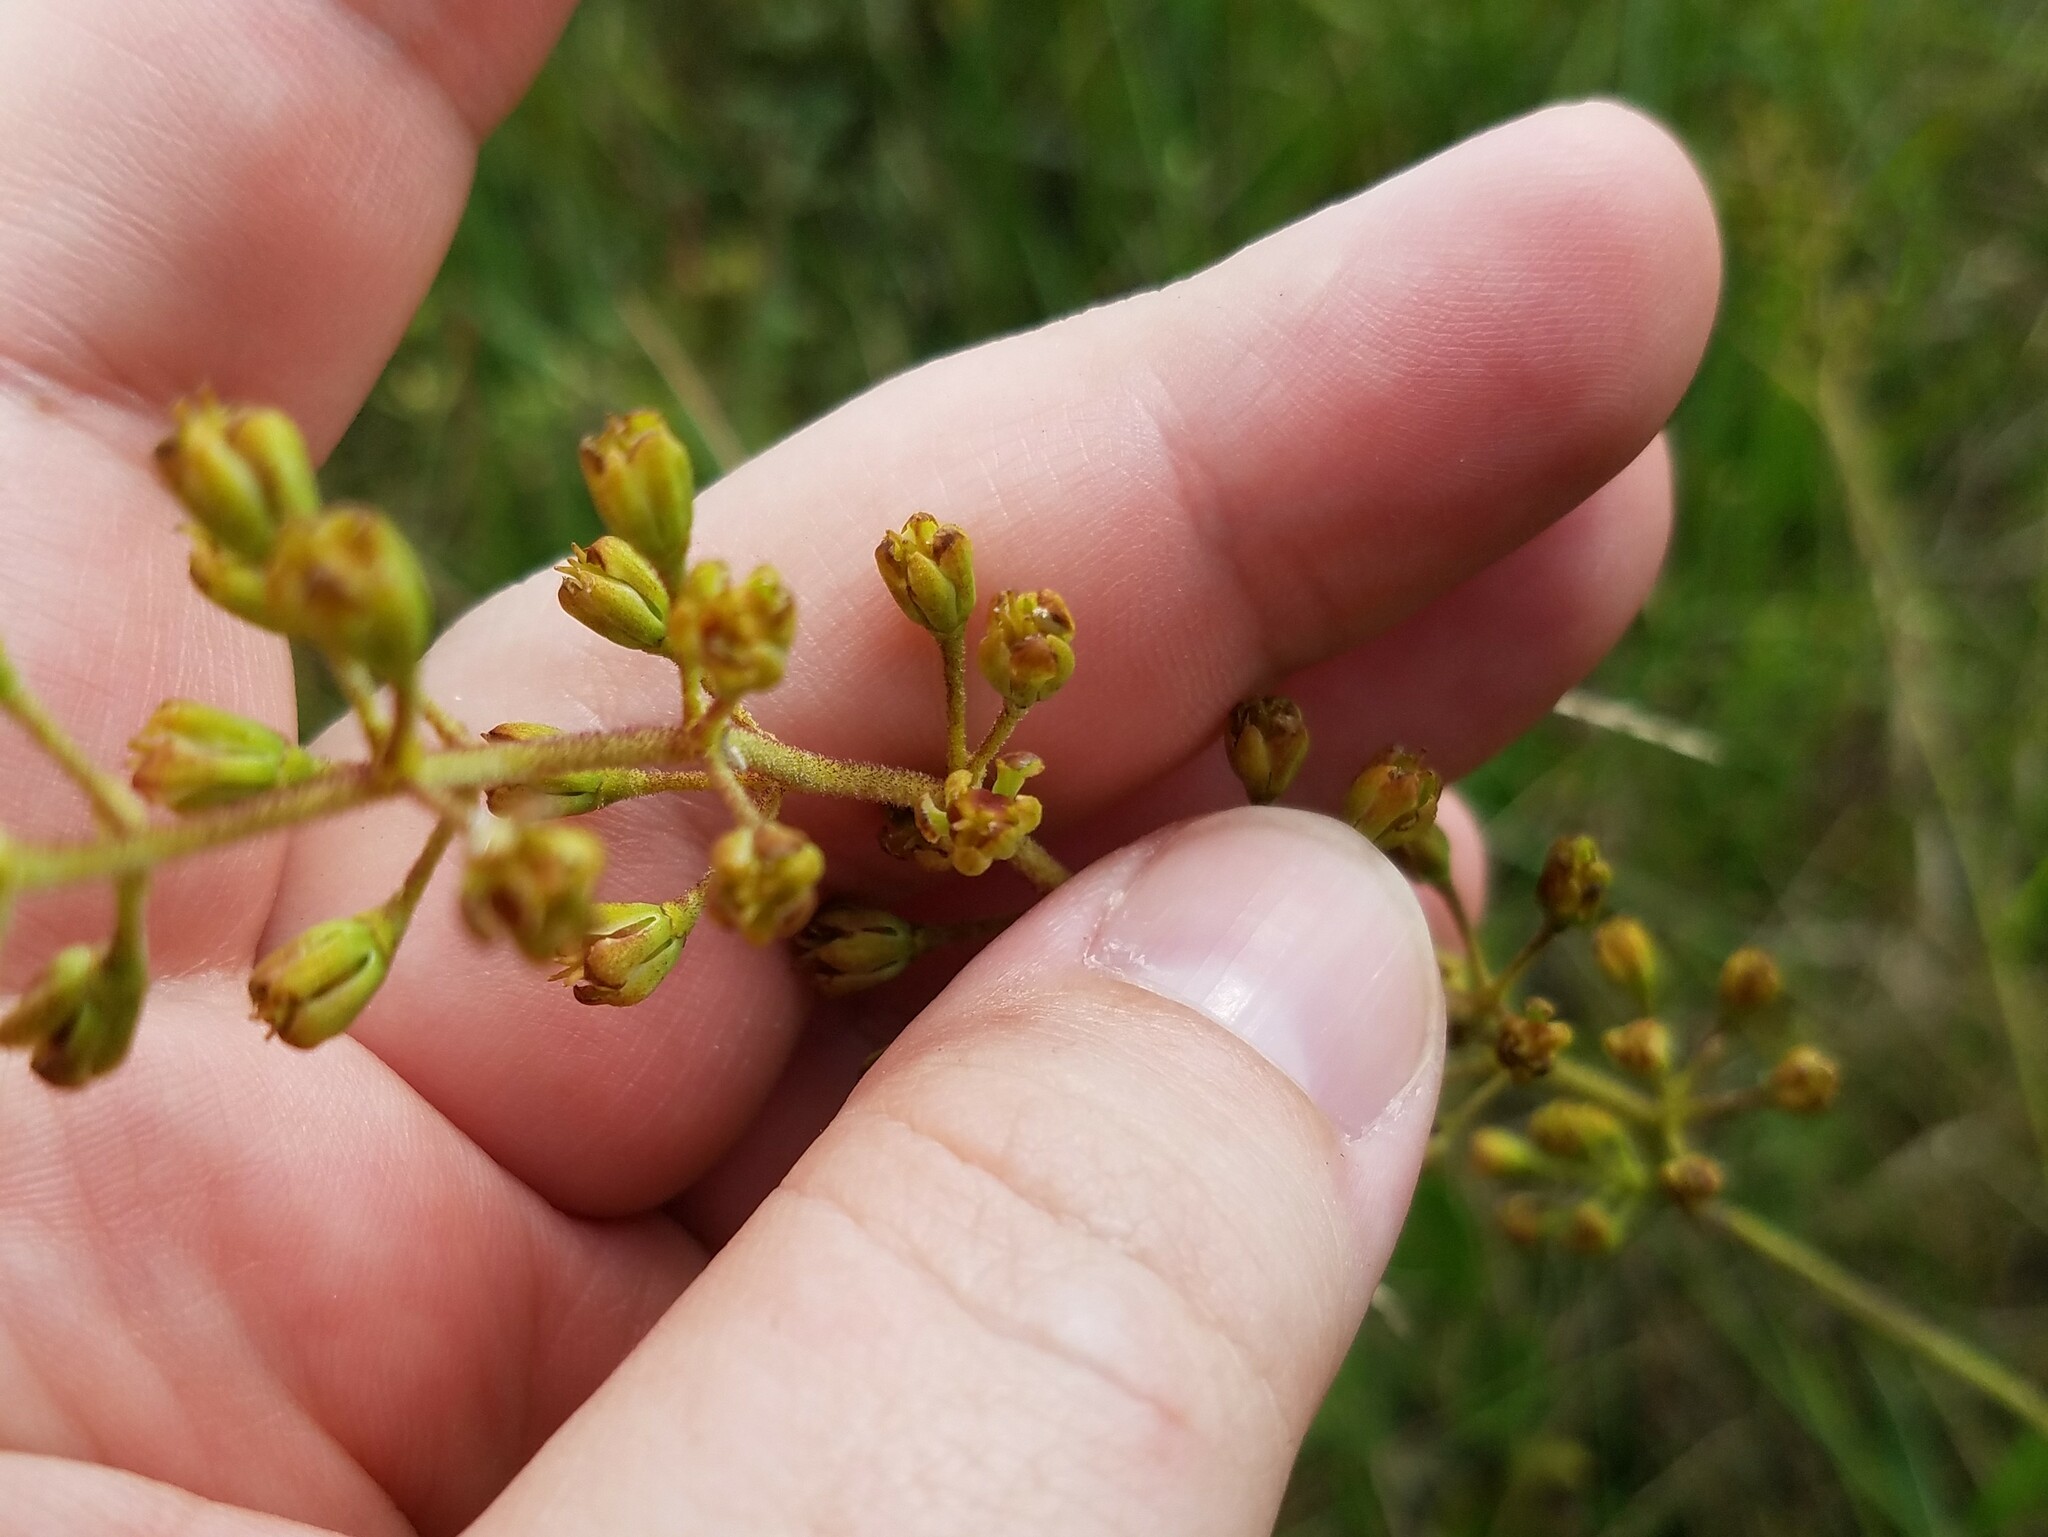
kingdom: Plantae
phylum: Tracheophyta
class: Liliopsida
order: Alismatales
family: Tofieldiaceae
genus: Triantha
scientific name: Triantha racemosa
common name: Coastal false asphodel
